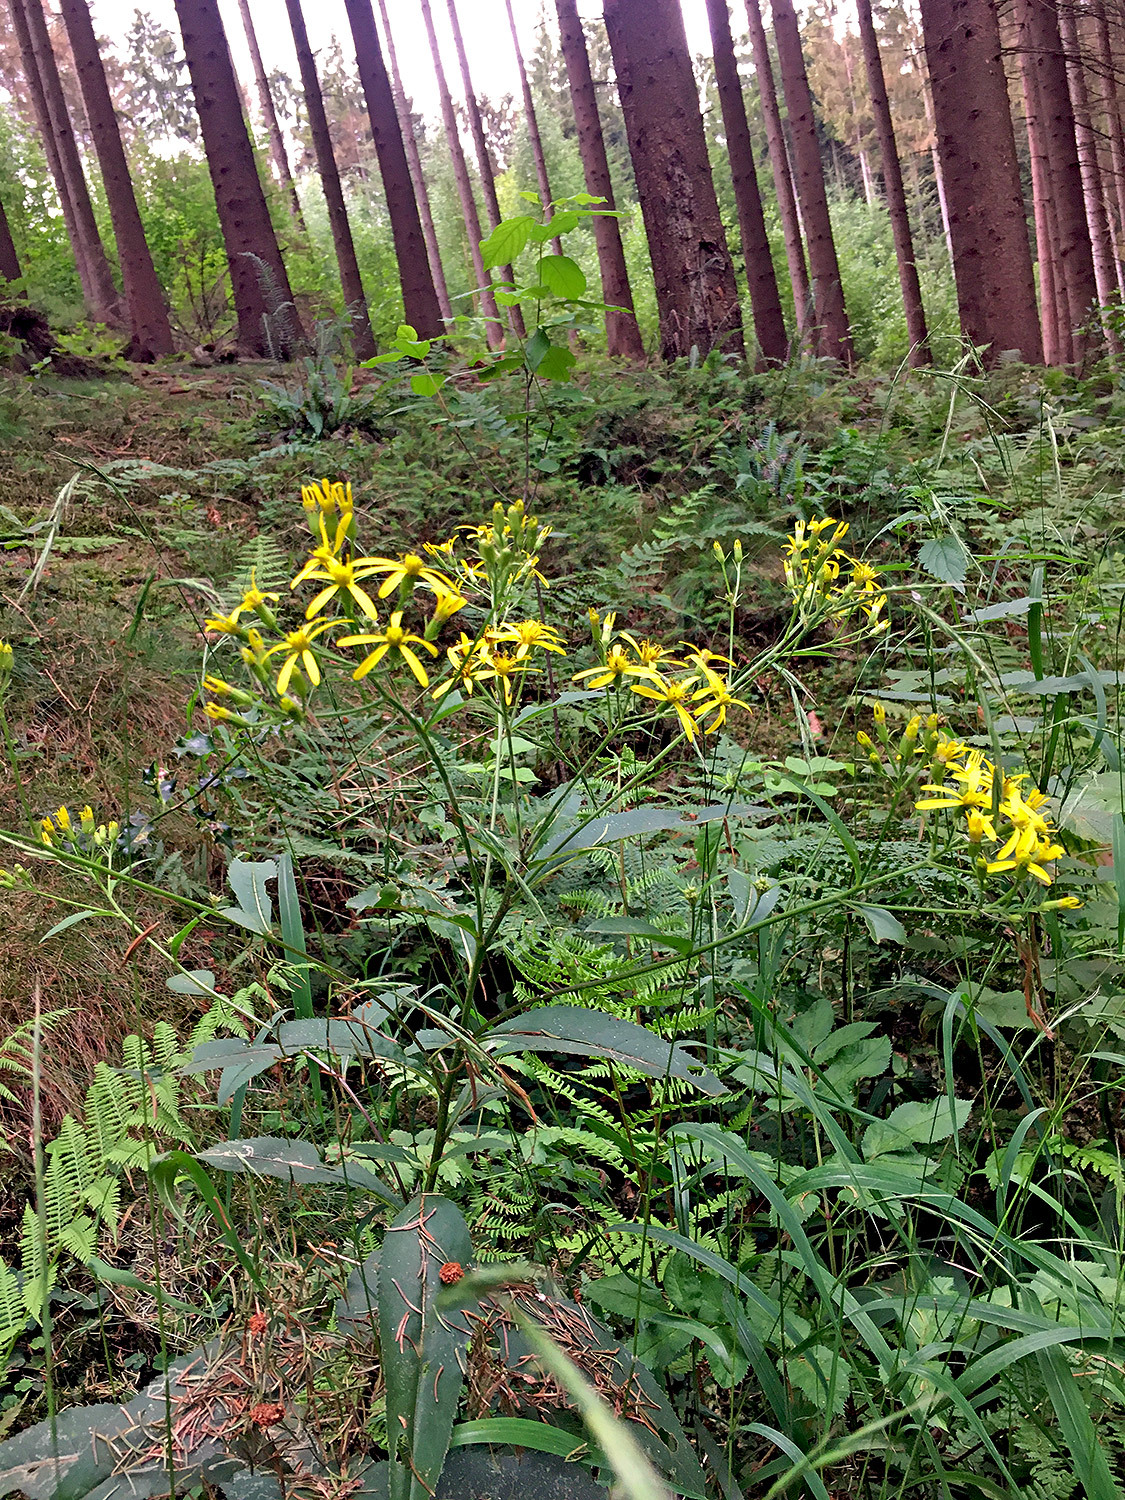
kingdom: Plantae
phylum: Tracheophyta
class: Magnoliopsida
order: Asterales
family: Asteraceae
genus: Senecio
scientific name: Senecio ovatus
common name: Wood ragwort
